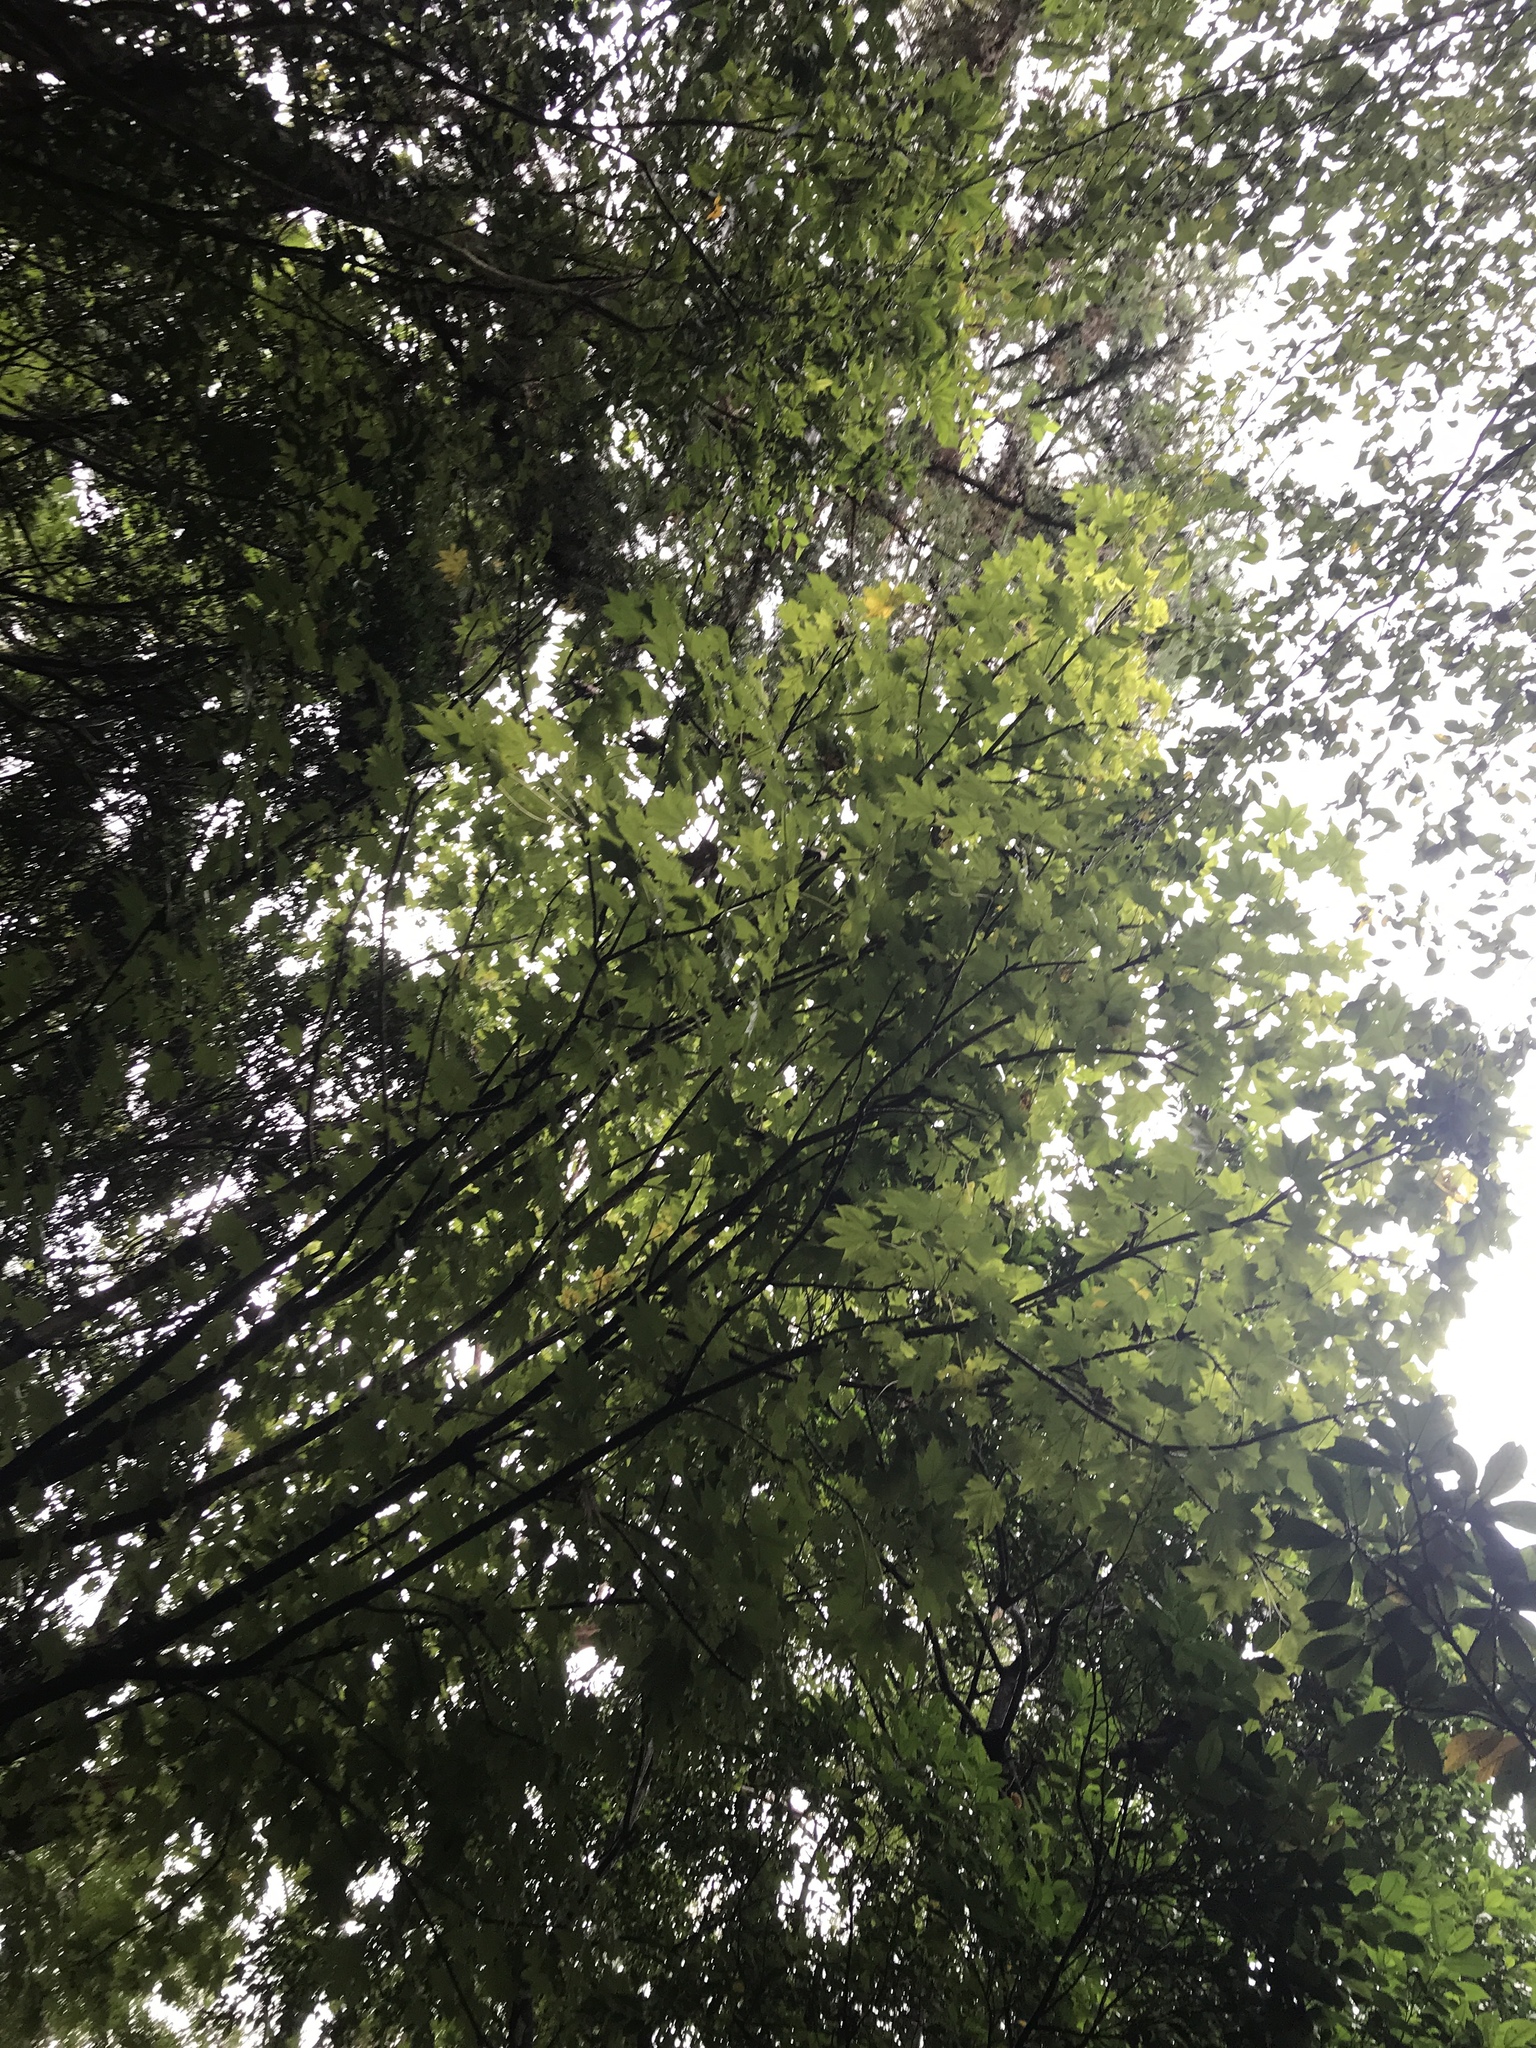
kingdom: Plantae
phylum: Tracheophyta
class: Magnoliopsida
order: Apiales
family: Araliaceae
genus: Kalopanax
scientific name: Kalopanax septemlobus
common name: Castor aralia
